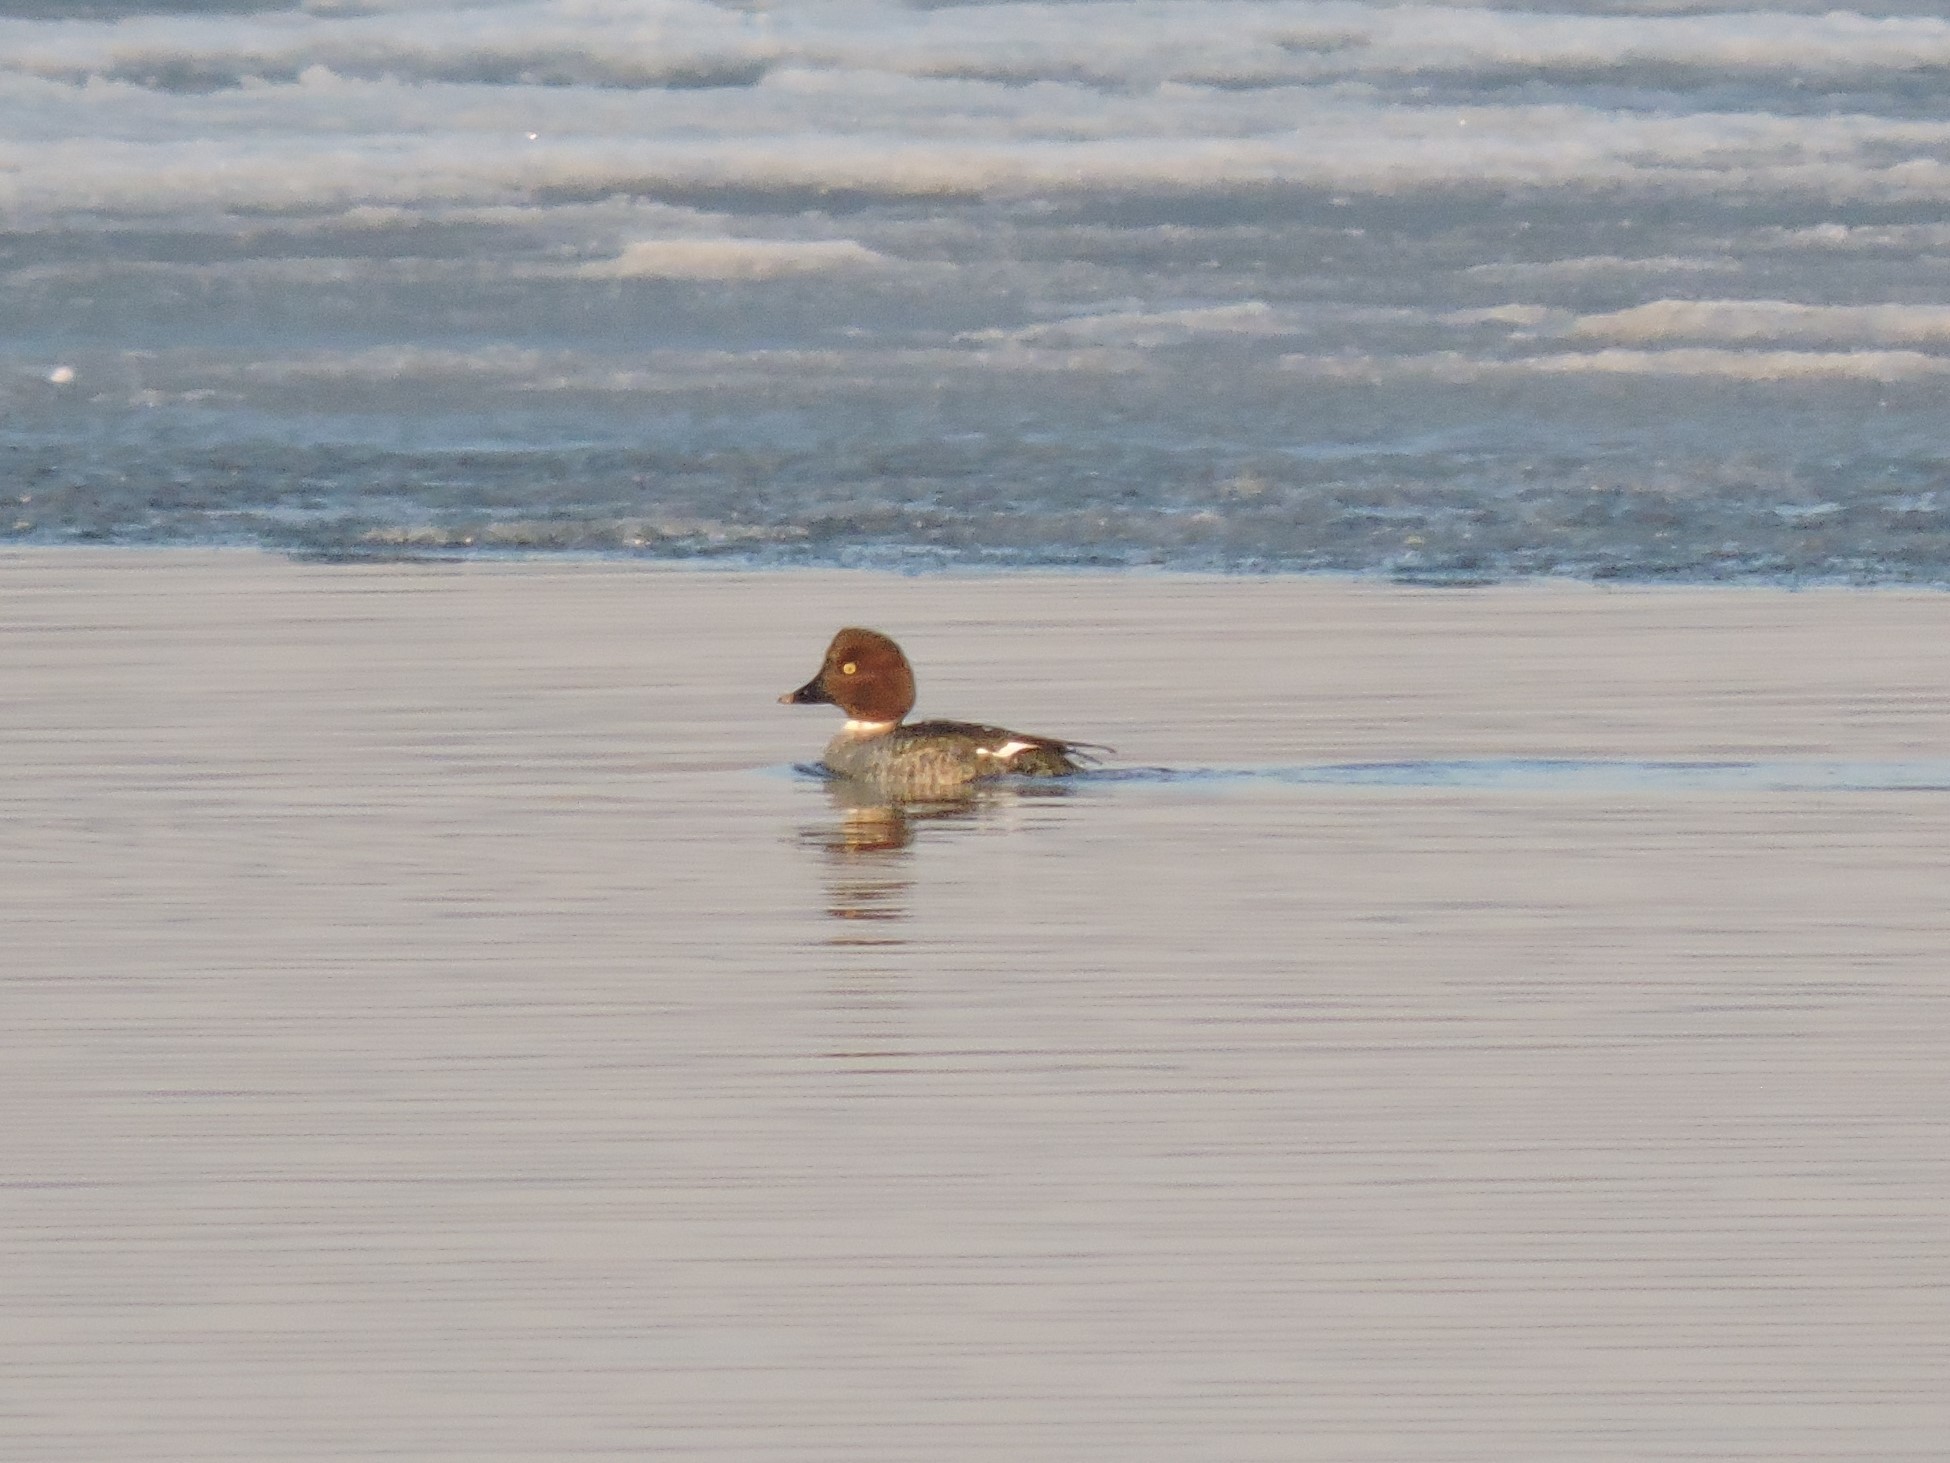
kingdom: Animalia
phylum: Chordata
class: Aves
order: Anseriformes
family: Anatidae
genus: Bucephala
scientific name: Bucephala clangula
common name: Common goldeneye
